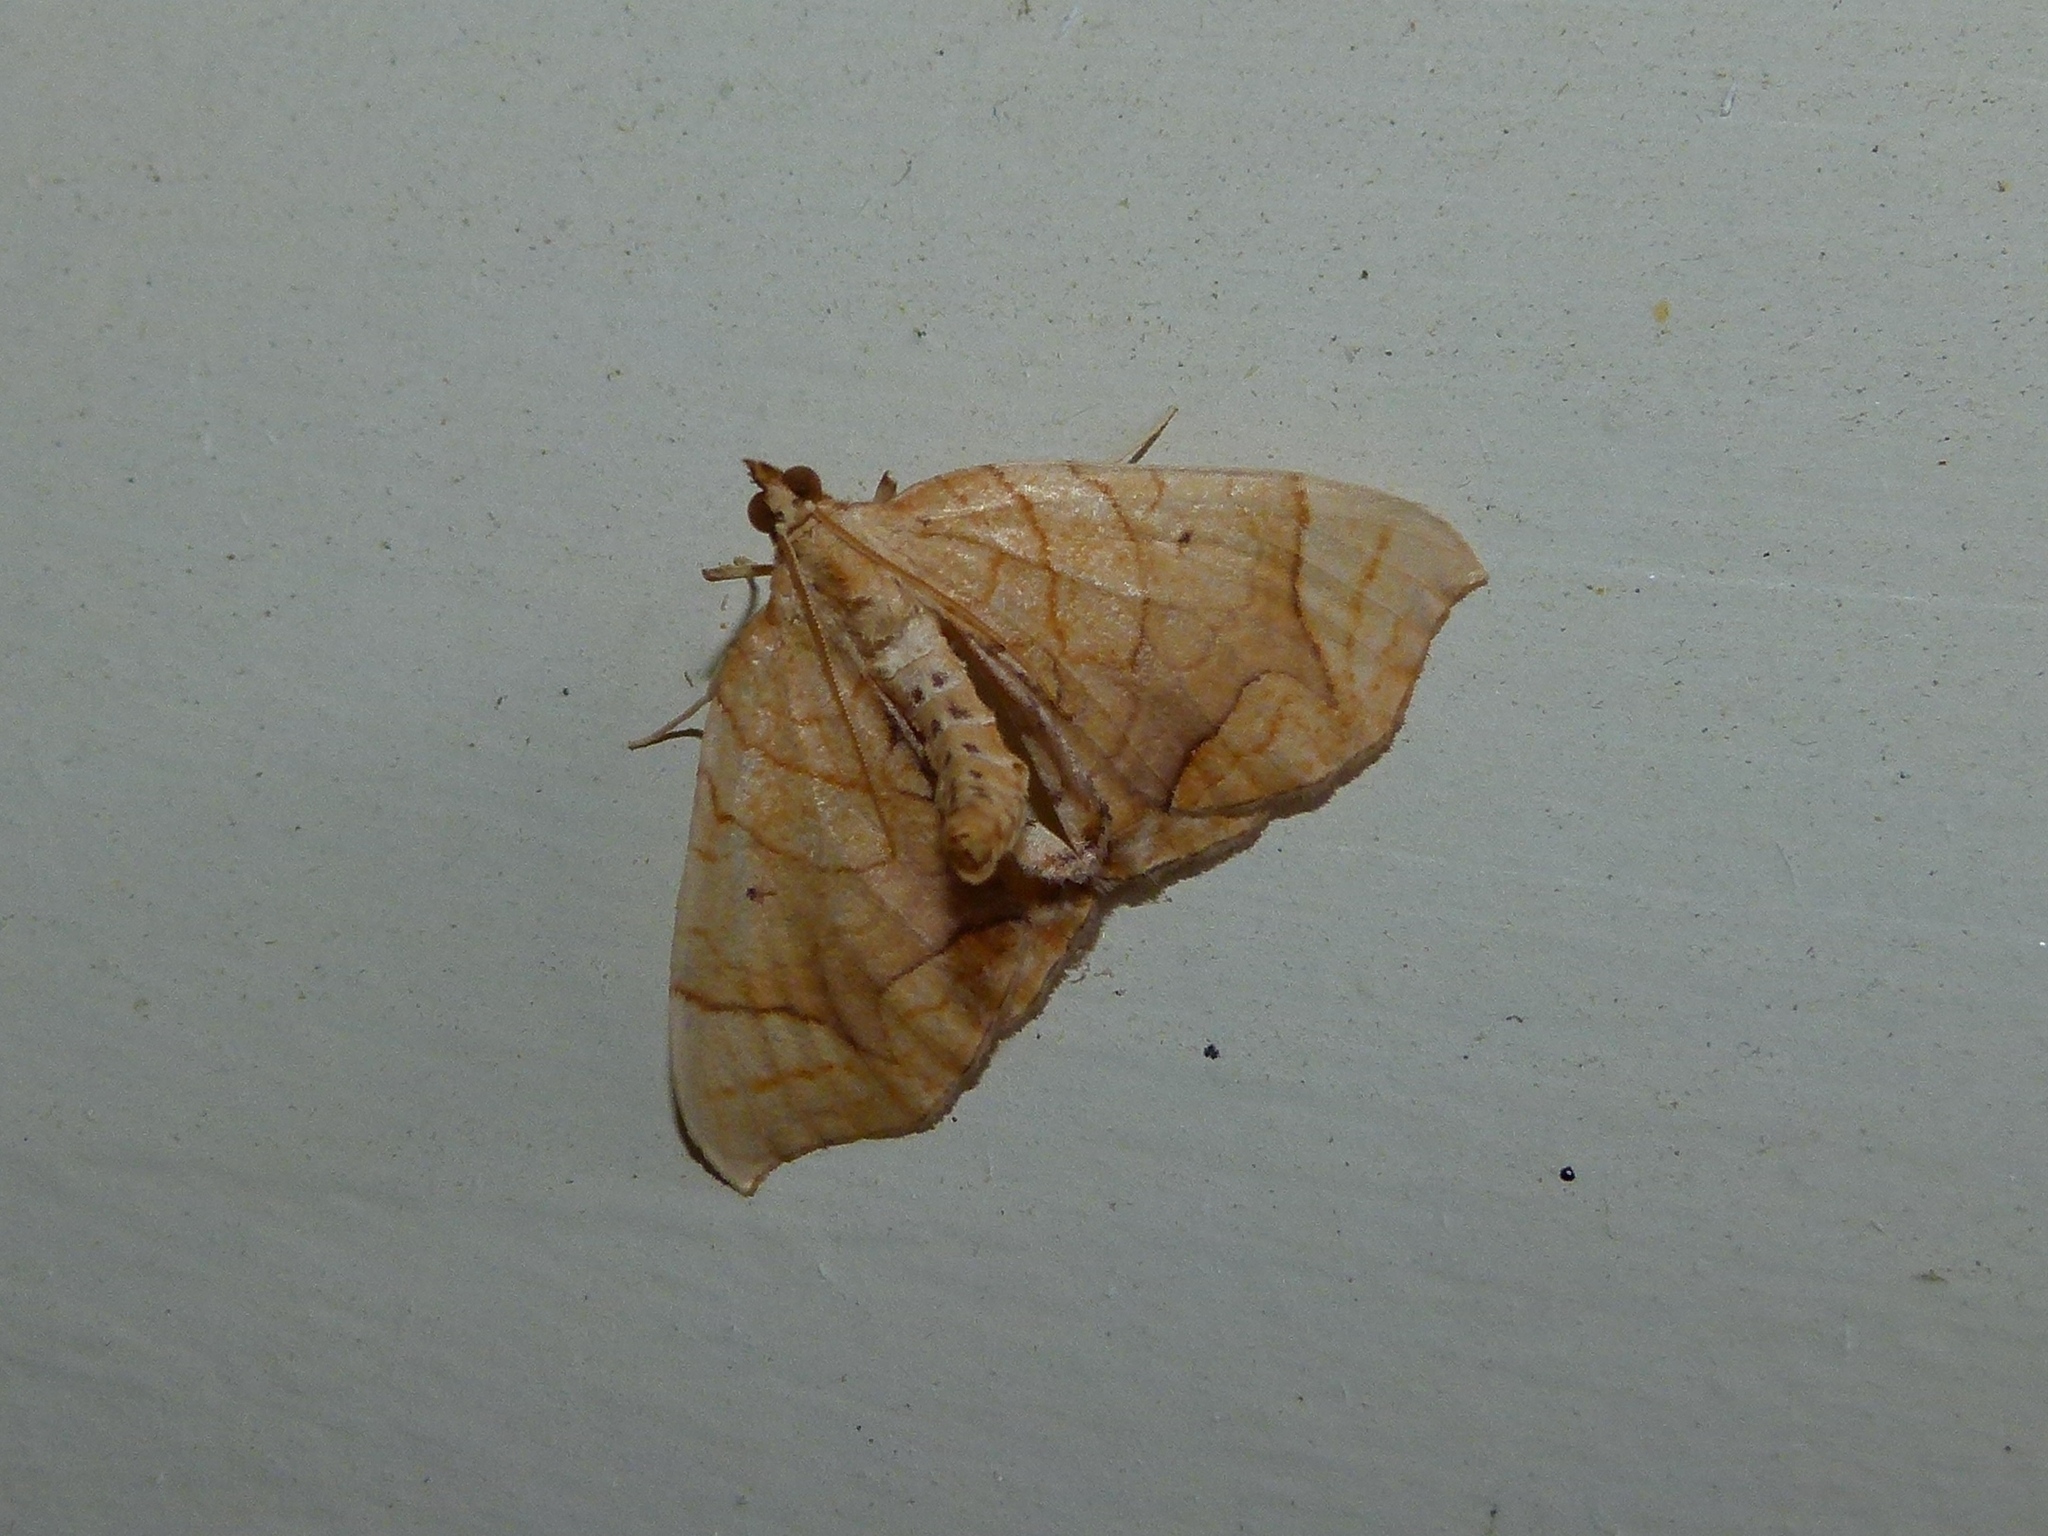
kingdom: Animalia
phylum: Arthropoda
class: Insecta
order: Lepidoptera
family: Geometridae
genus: Eulithis
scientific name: Eulithis
